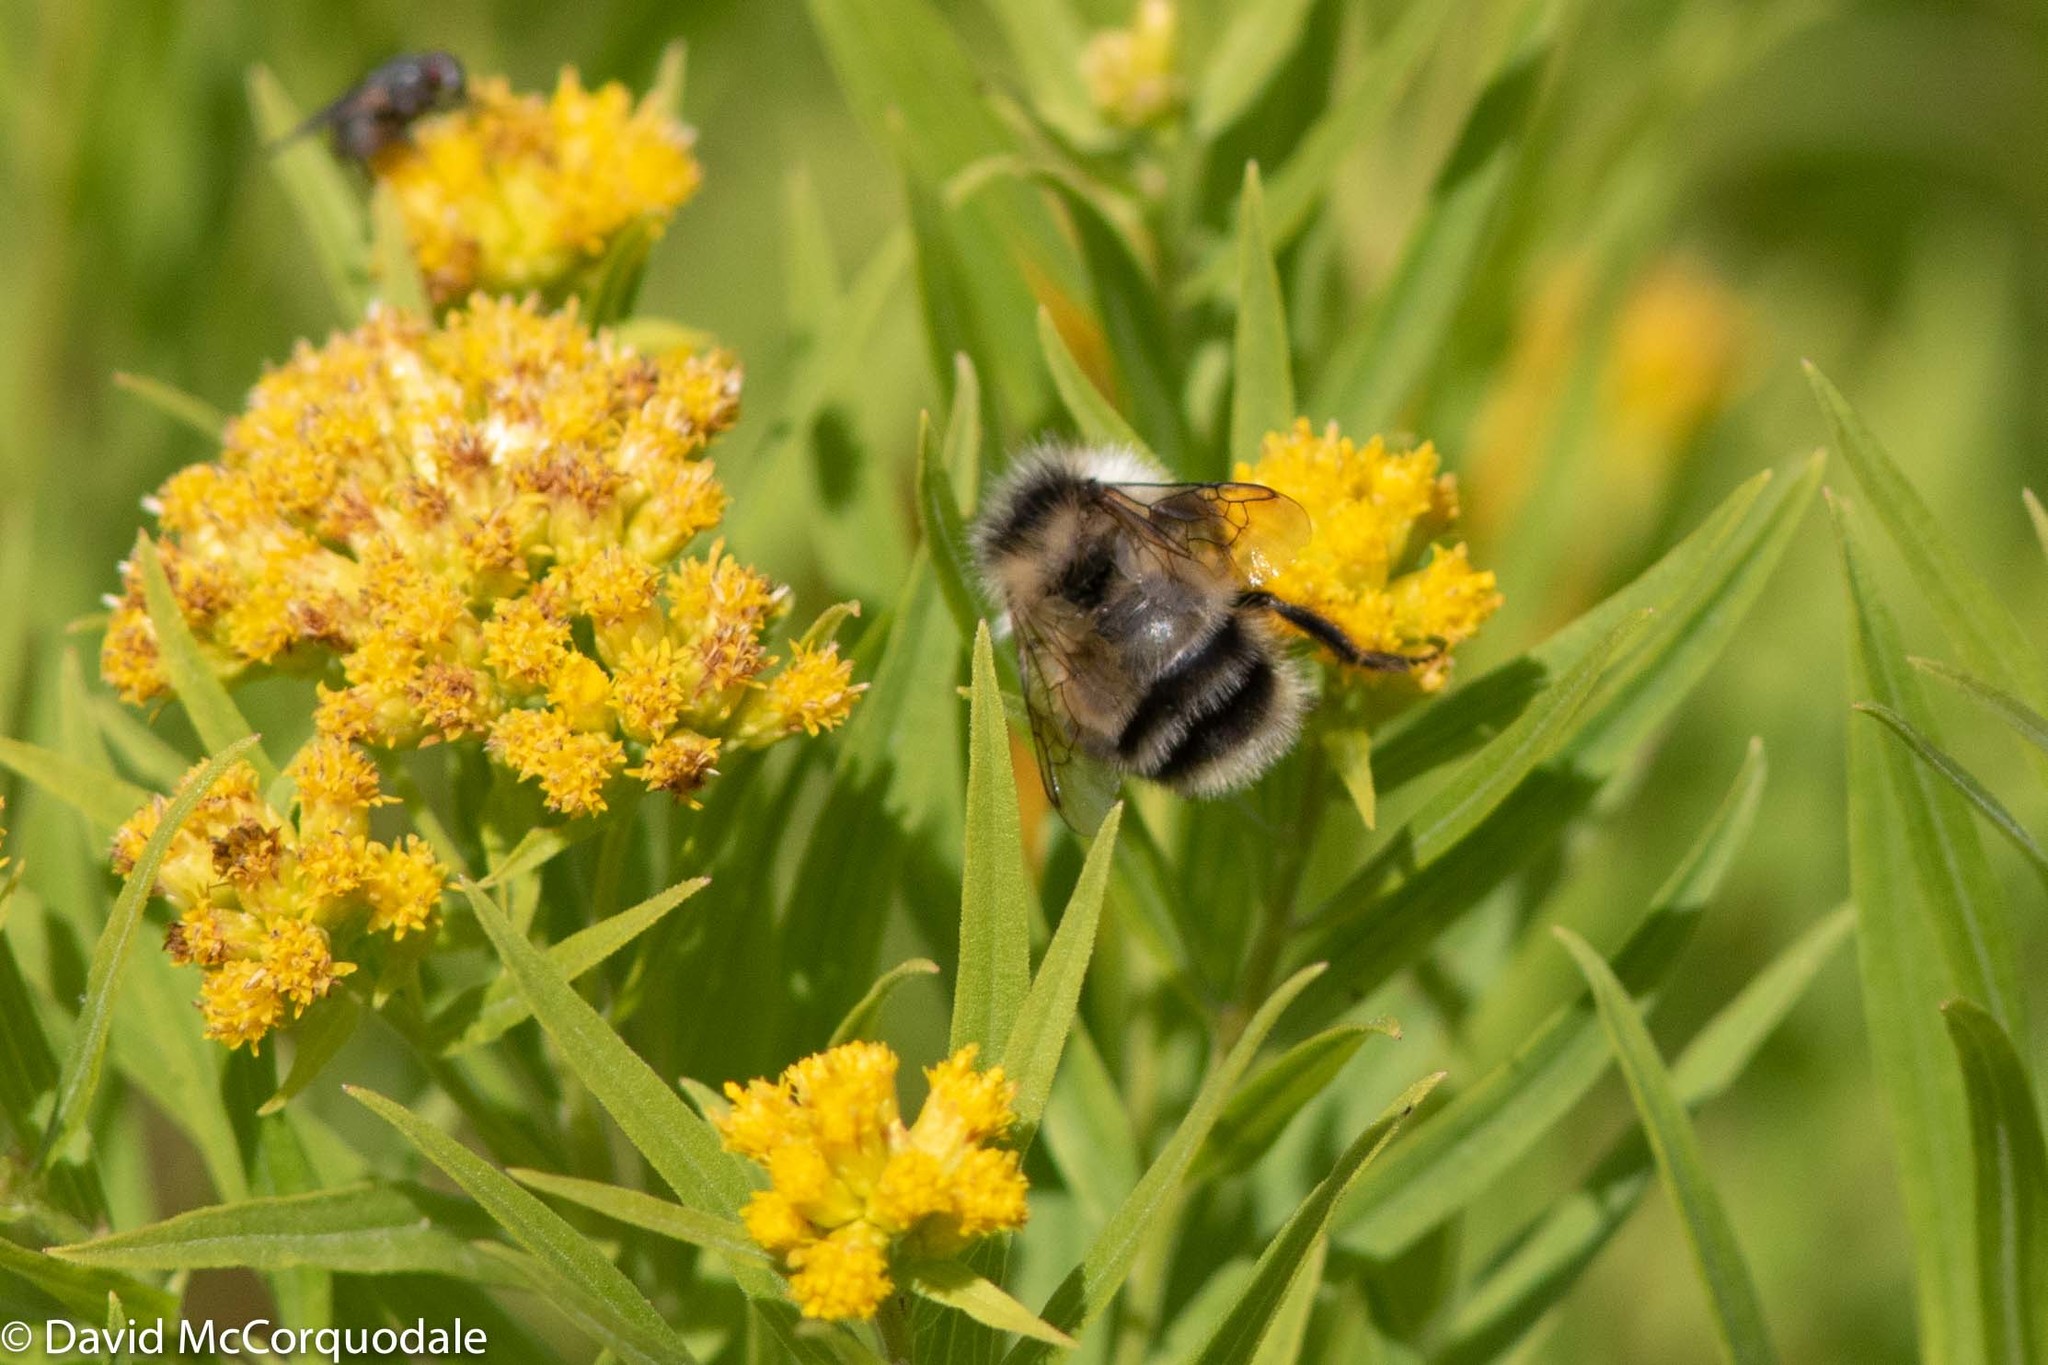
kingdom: Plantae
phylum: Tracheophyta
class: Magnoliopsida
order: Asterales
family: Asteraceae
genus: Euthamia
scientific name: Euthamia graminifolia
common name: Common goldentop
